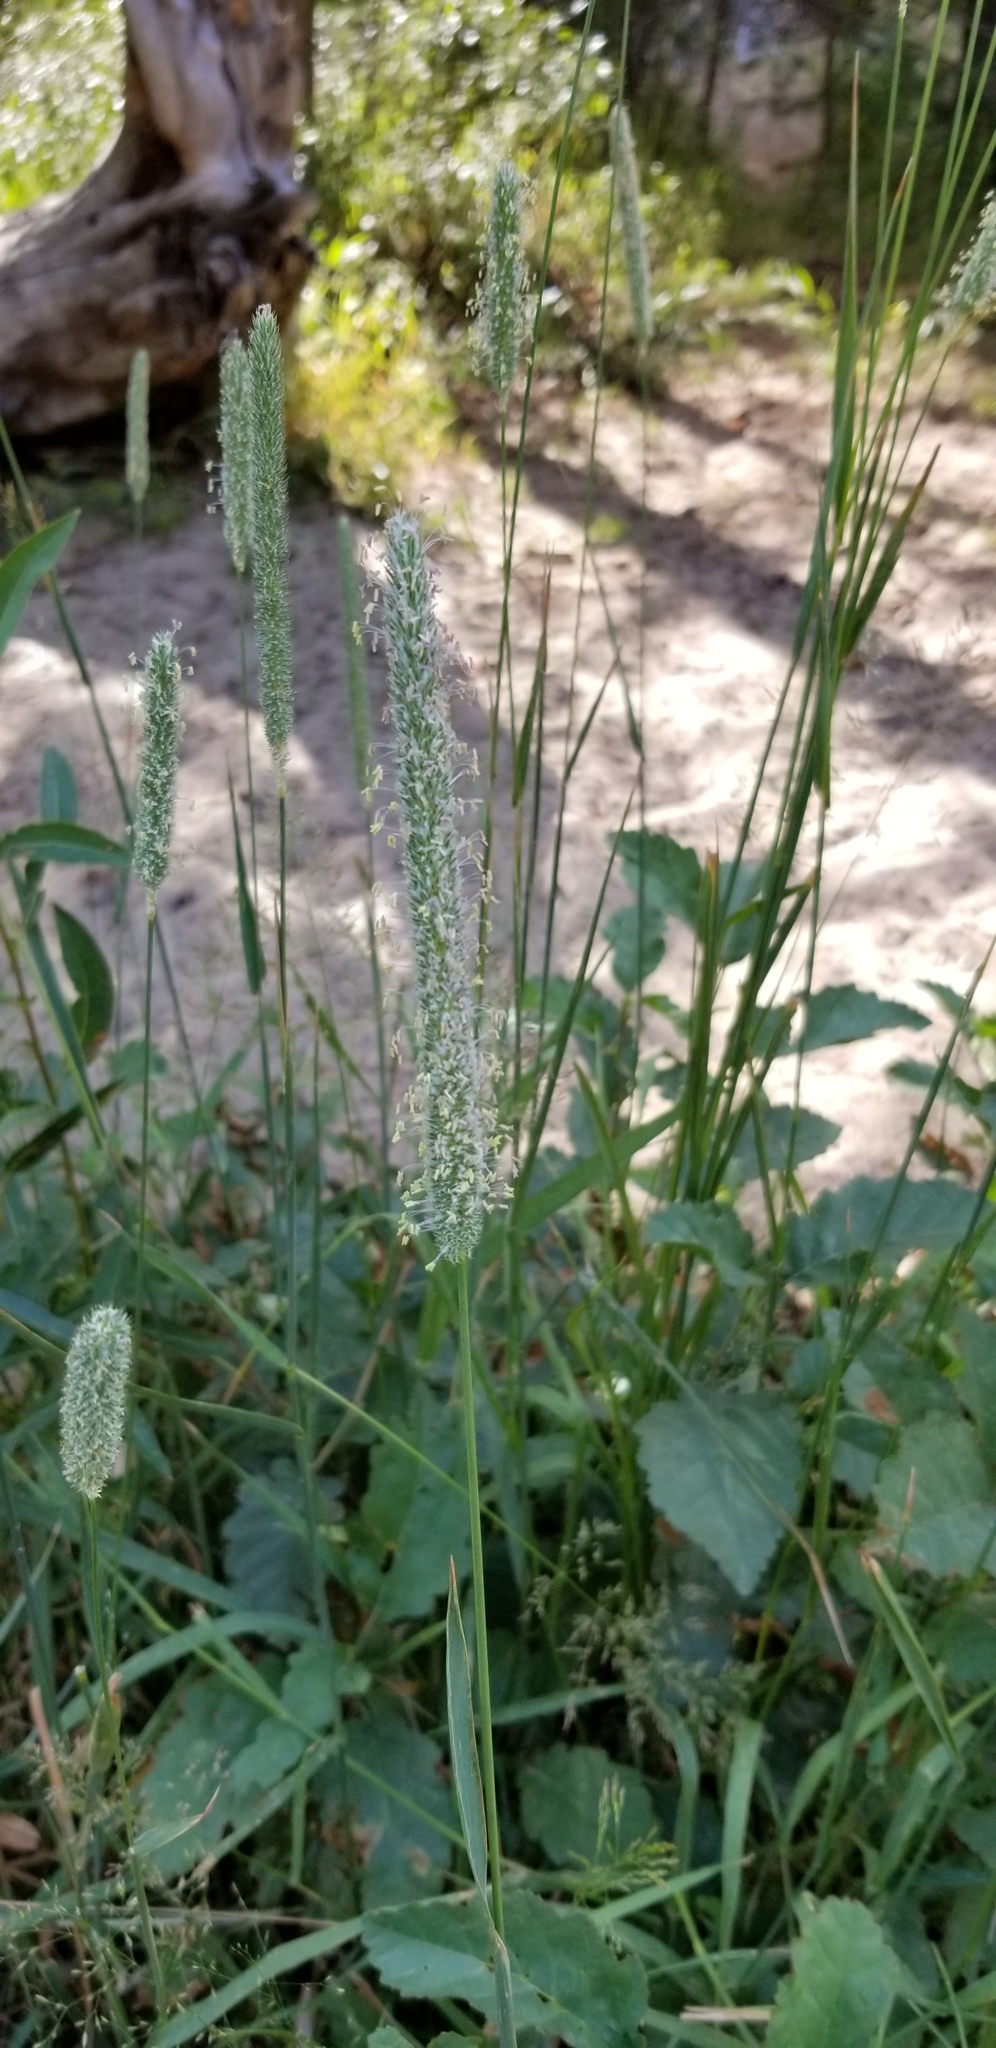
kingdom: Plantae
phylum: Tracheophyta
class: Liliopsida
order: Poales
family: Poaceae
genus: Phleum
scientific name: Phleum pratense
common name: Timothy grass
